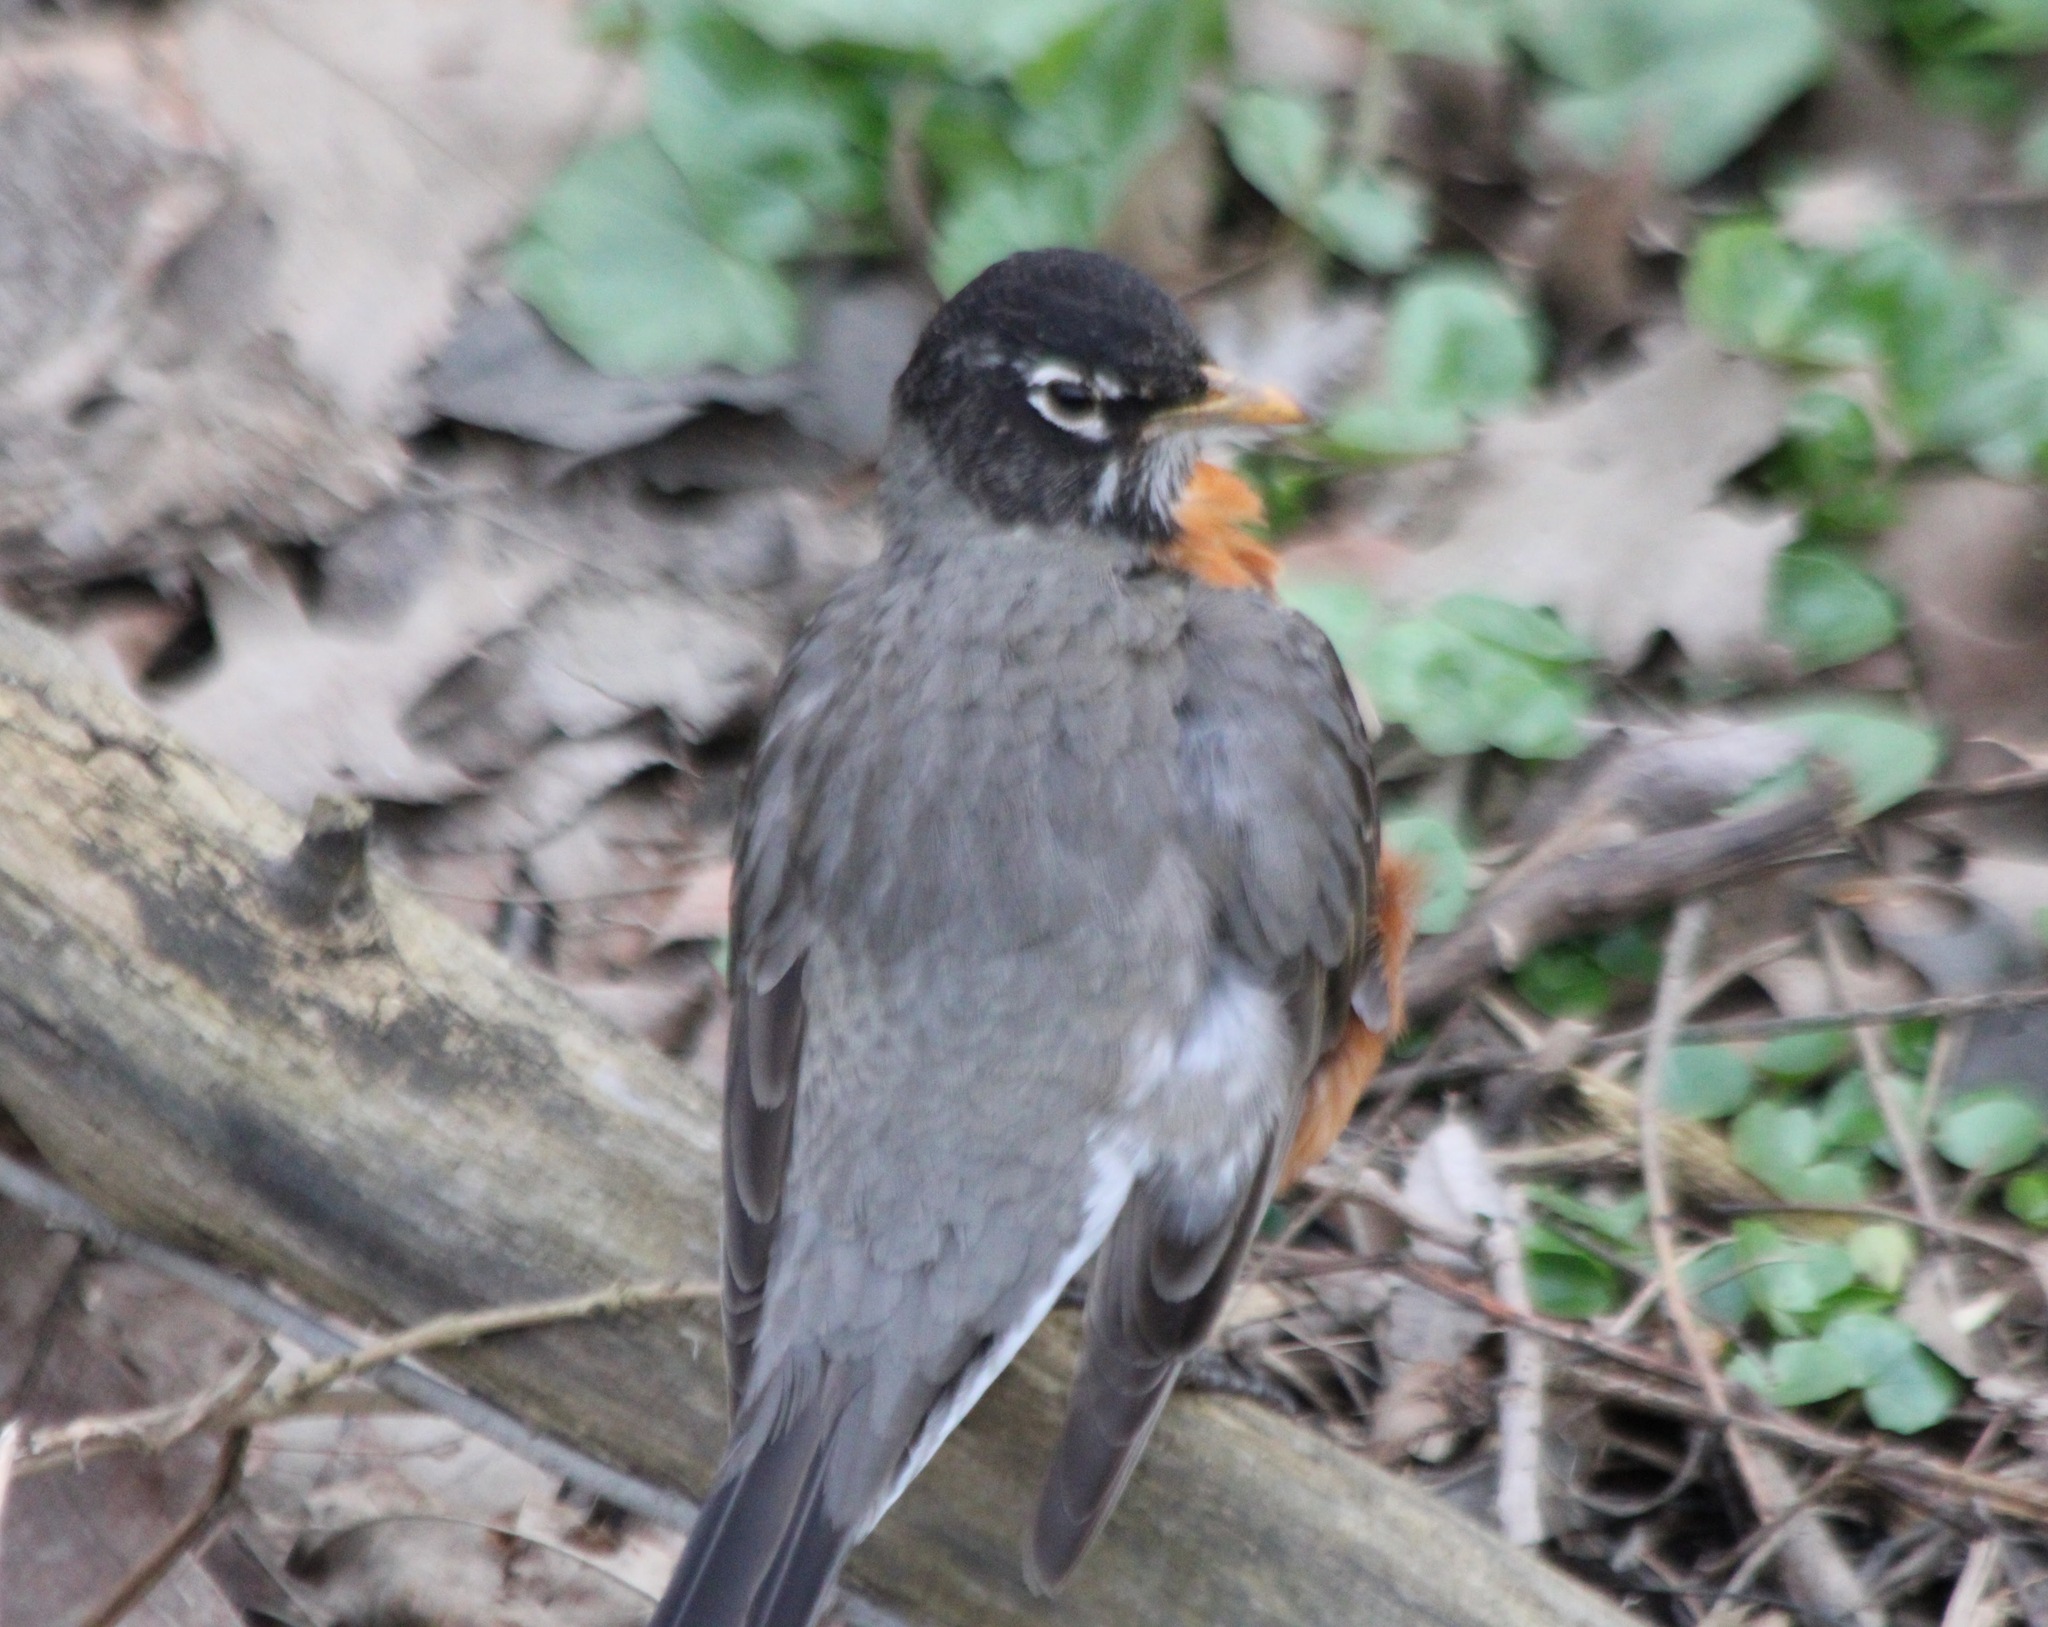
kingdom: Animalia
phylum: Chordata
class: Aves
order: Passeriformes
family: Turdidae
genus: Turdus
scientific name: Turdus migratorius
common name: American robin
